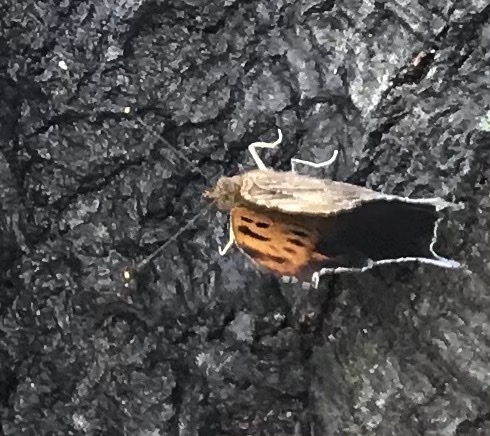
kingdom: Animalia
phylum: Arthropoda
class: Insecta
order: Lepidoptera
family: Nymphalidae
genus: Polygonia
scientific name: Polygonia interrogationis
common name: Question mark
